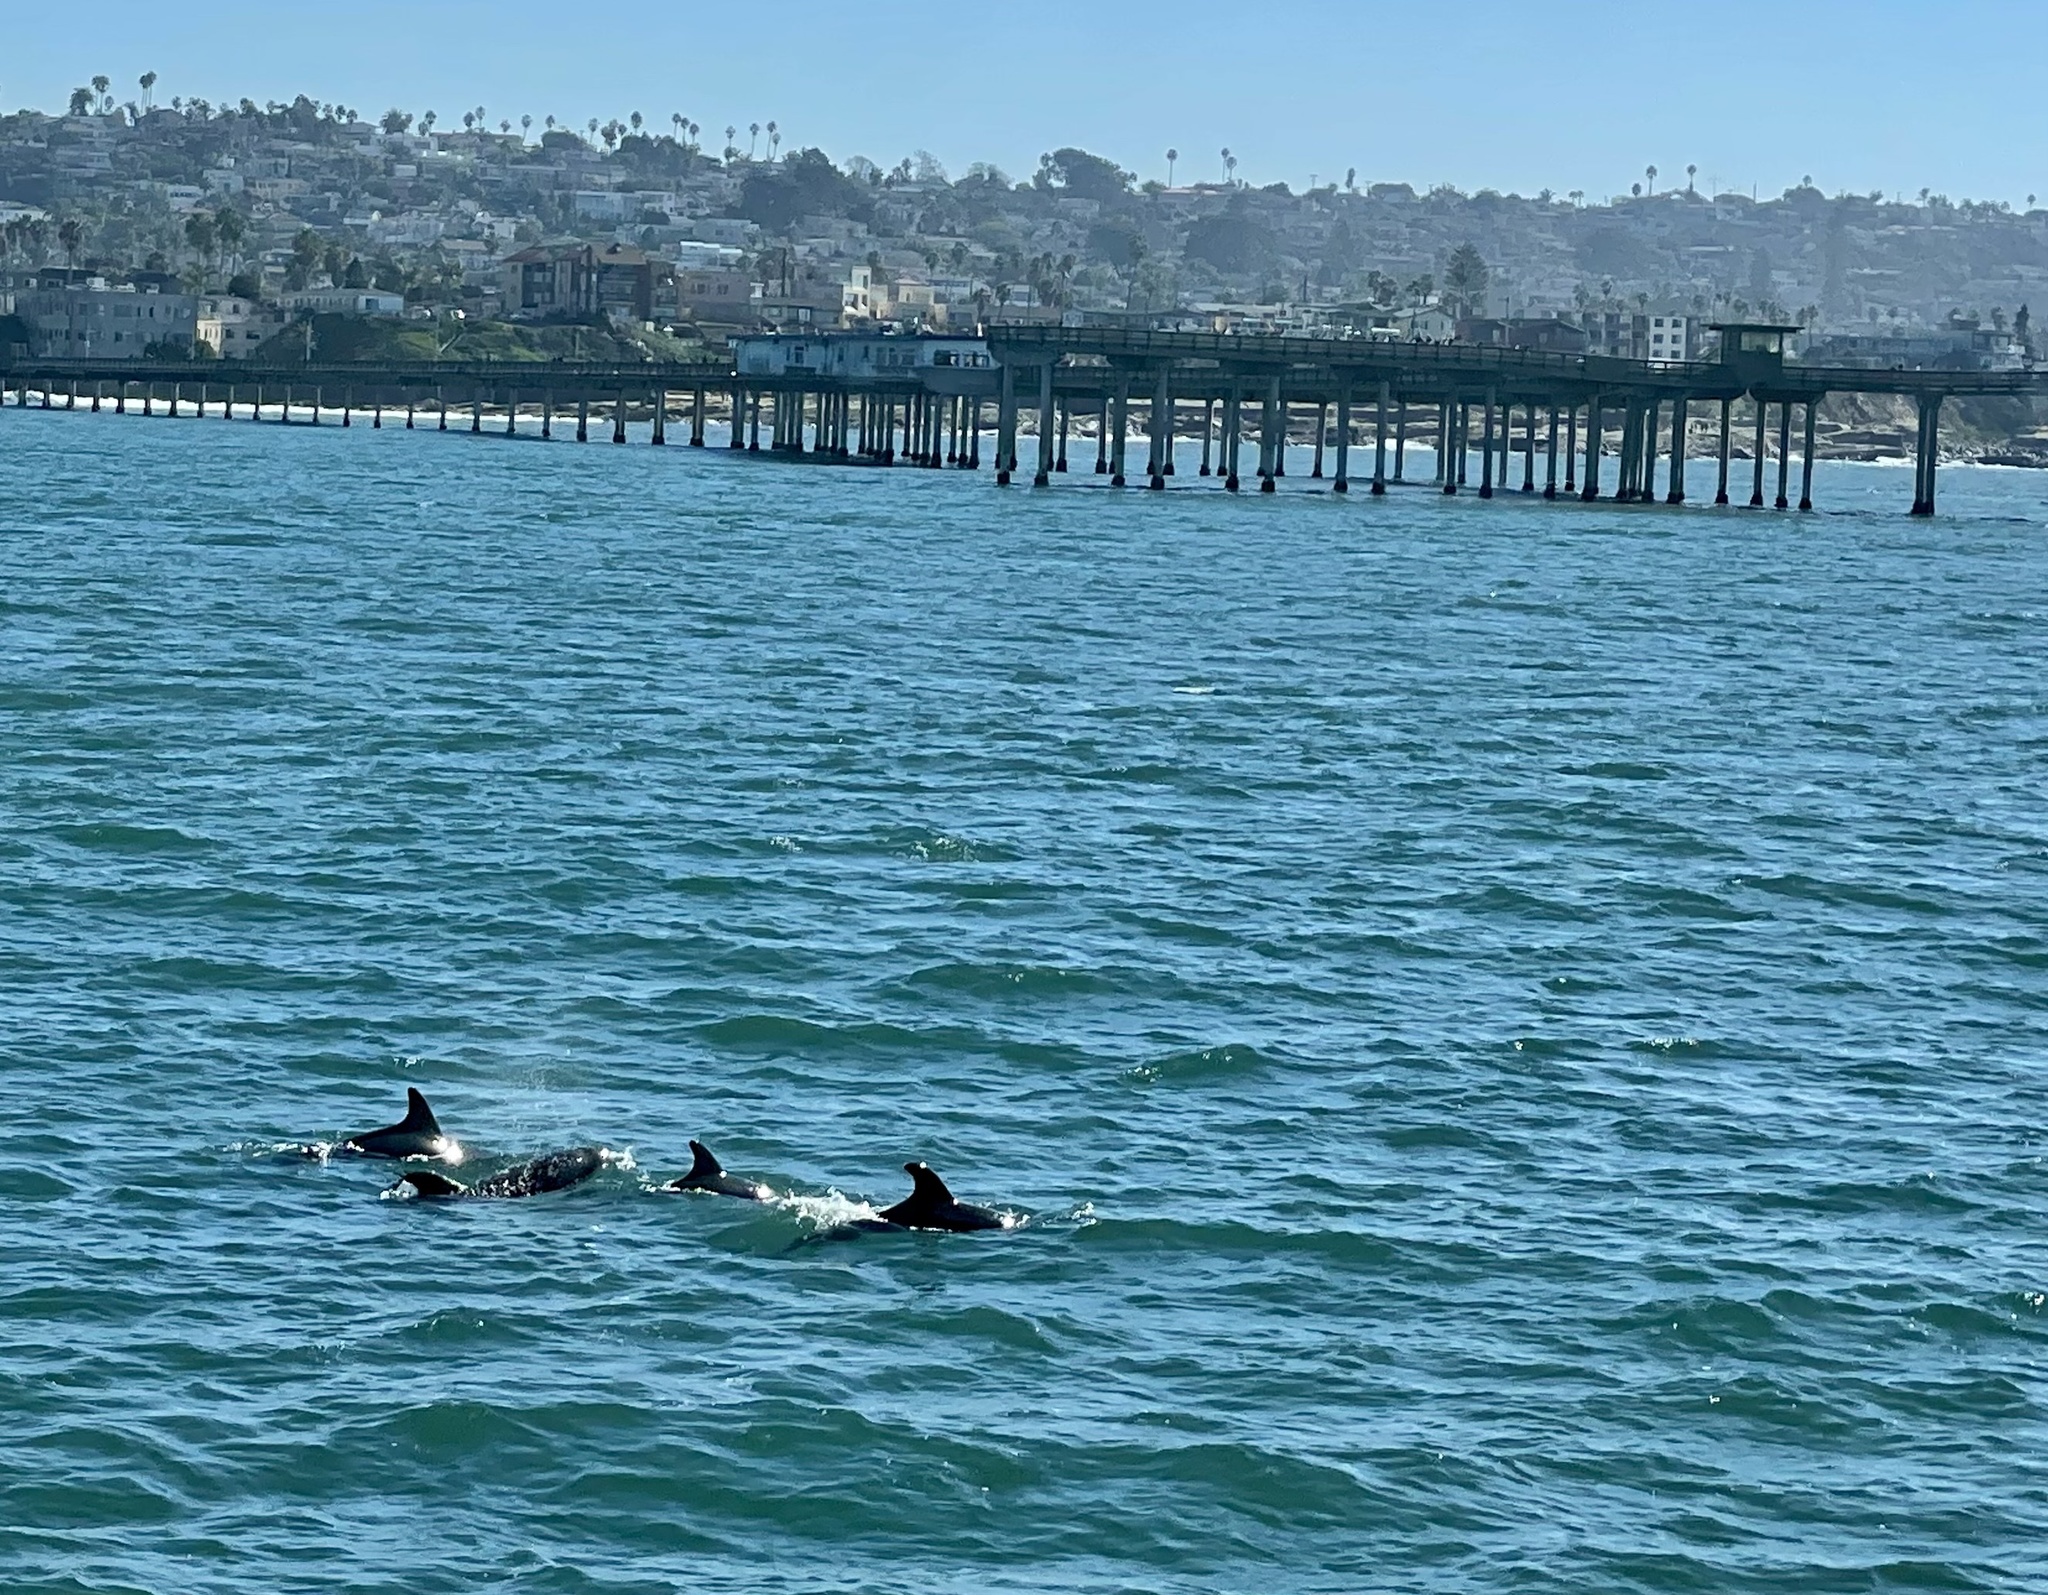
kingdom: Animalia
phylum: Chordata
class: Mammalia
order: Cetacea
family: Delphinidae
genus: Tursiops
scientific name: Tursiops truncatus
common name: Bottlenose dolphin
